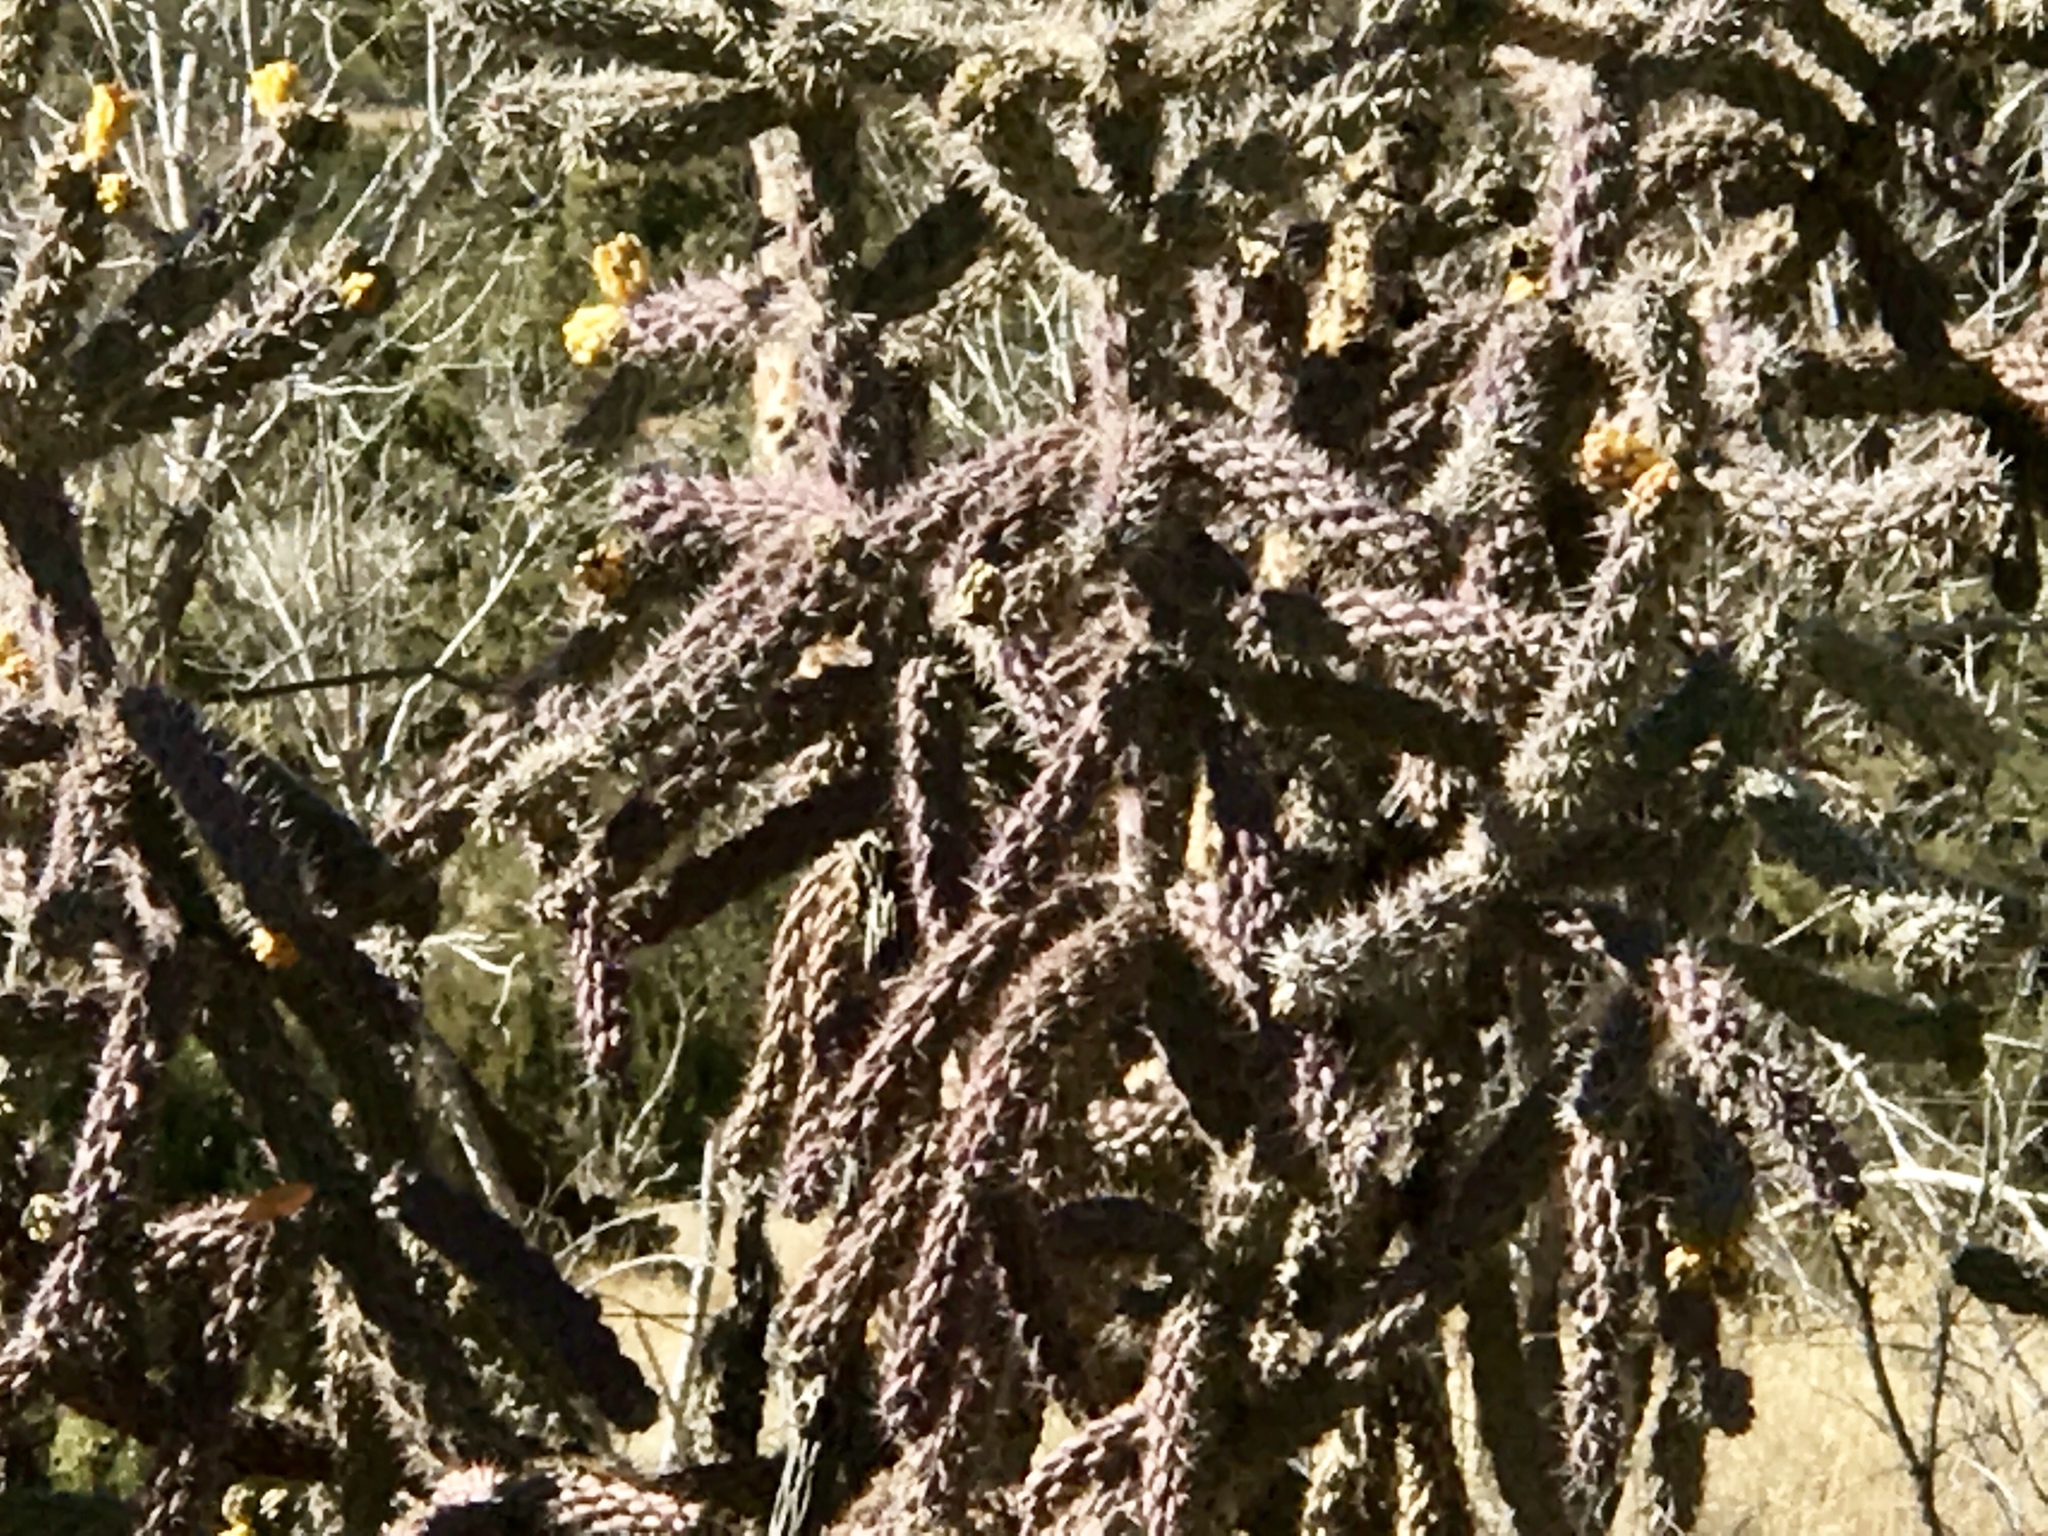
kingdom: Plantae
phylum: Tracheophyta
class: Magnoliopsida
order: Caryophyllales
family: Cactaceae
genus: Cylindropuntia
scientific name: Cylindropuntia imbricata
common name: Candelabrum cactus
